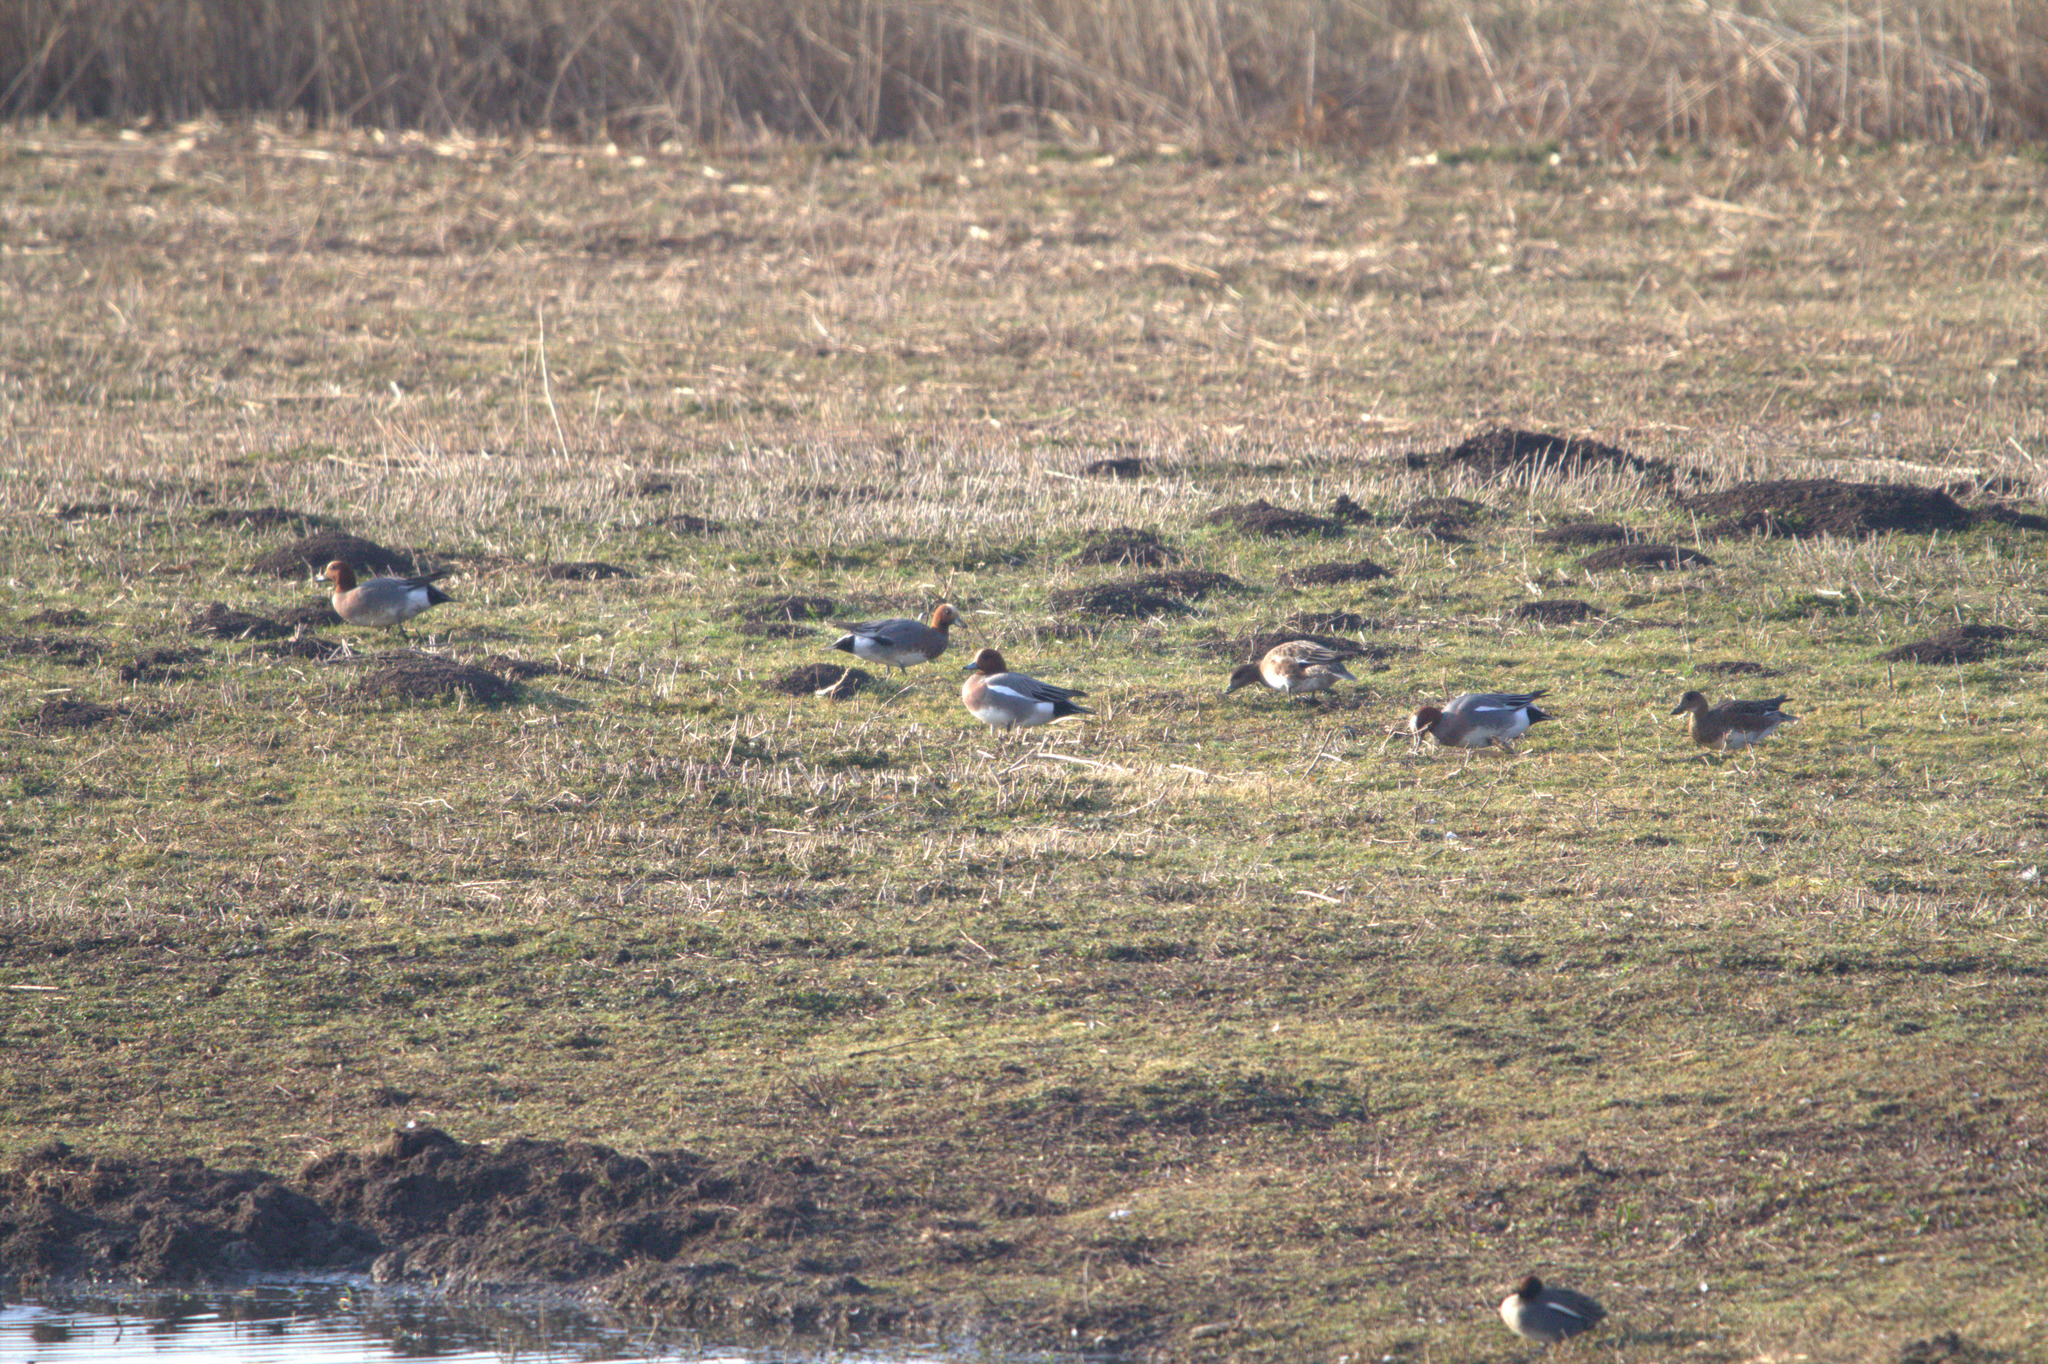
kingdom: Animalia
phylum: Chordata
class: Aves
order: Anseriformes
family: Anatidae
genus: Mareca
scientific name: Mareca penelope
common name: Eurasian wigeon
